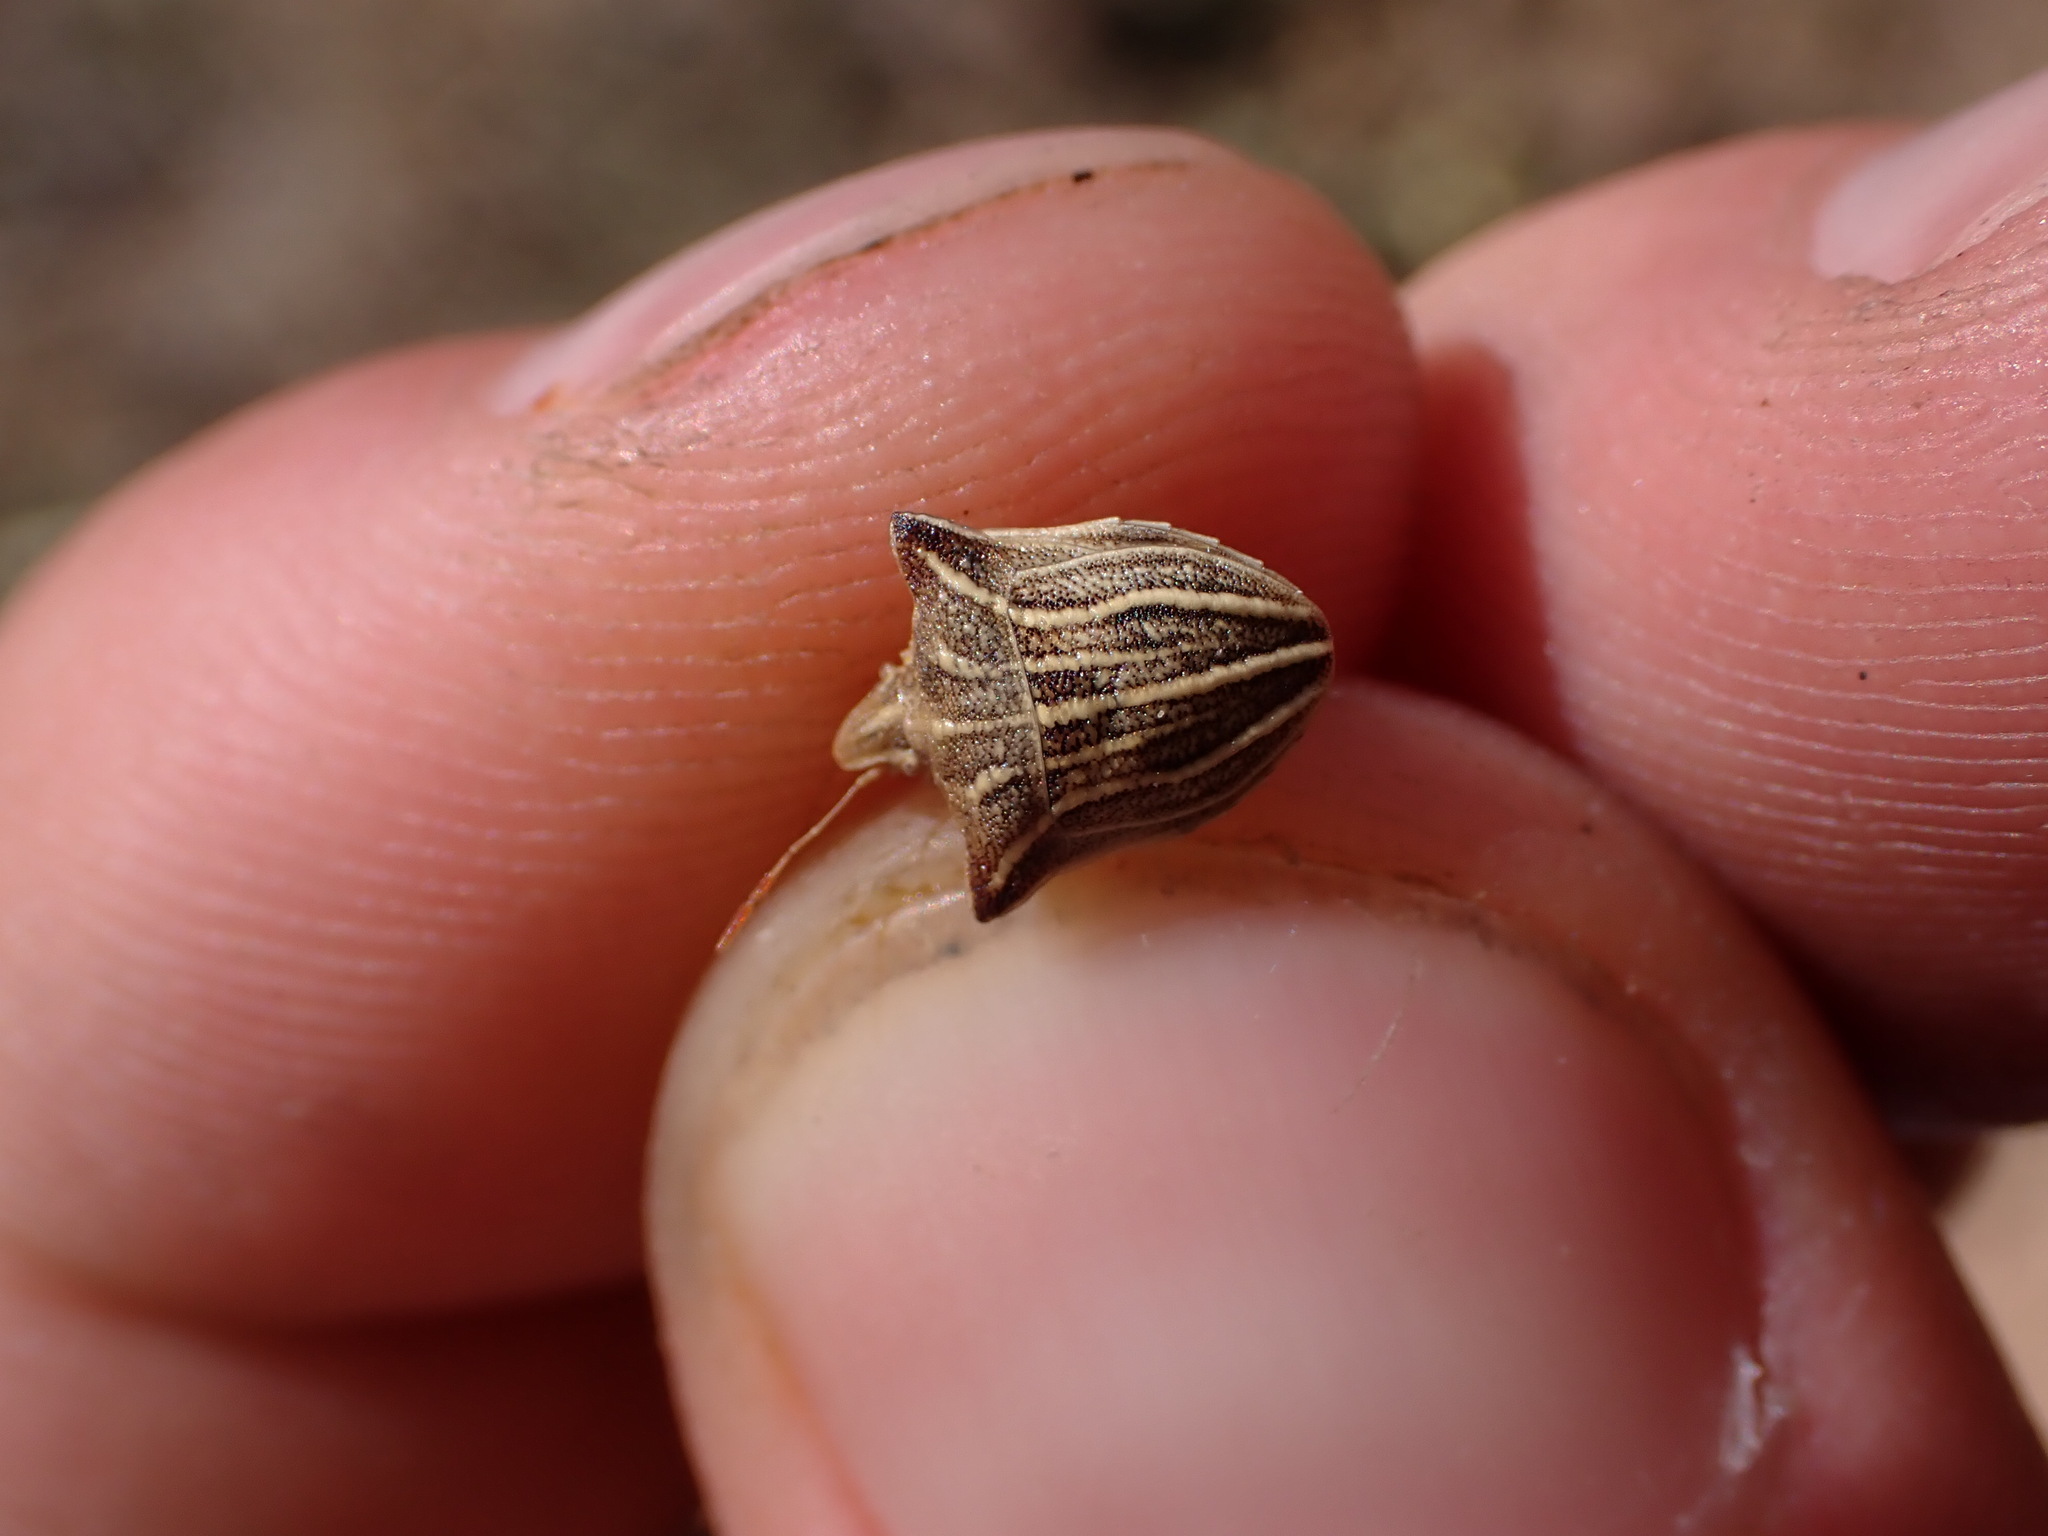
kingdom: Animalia
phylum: Arthropoda
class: Insecta
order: Hemiptera
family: Pentatomidae
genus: Ancyrosoma
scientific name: Ancyrosoma leucogrammes
